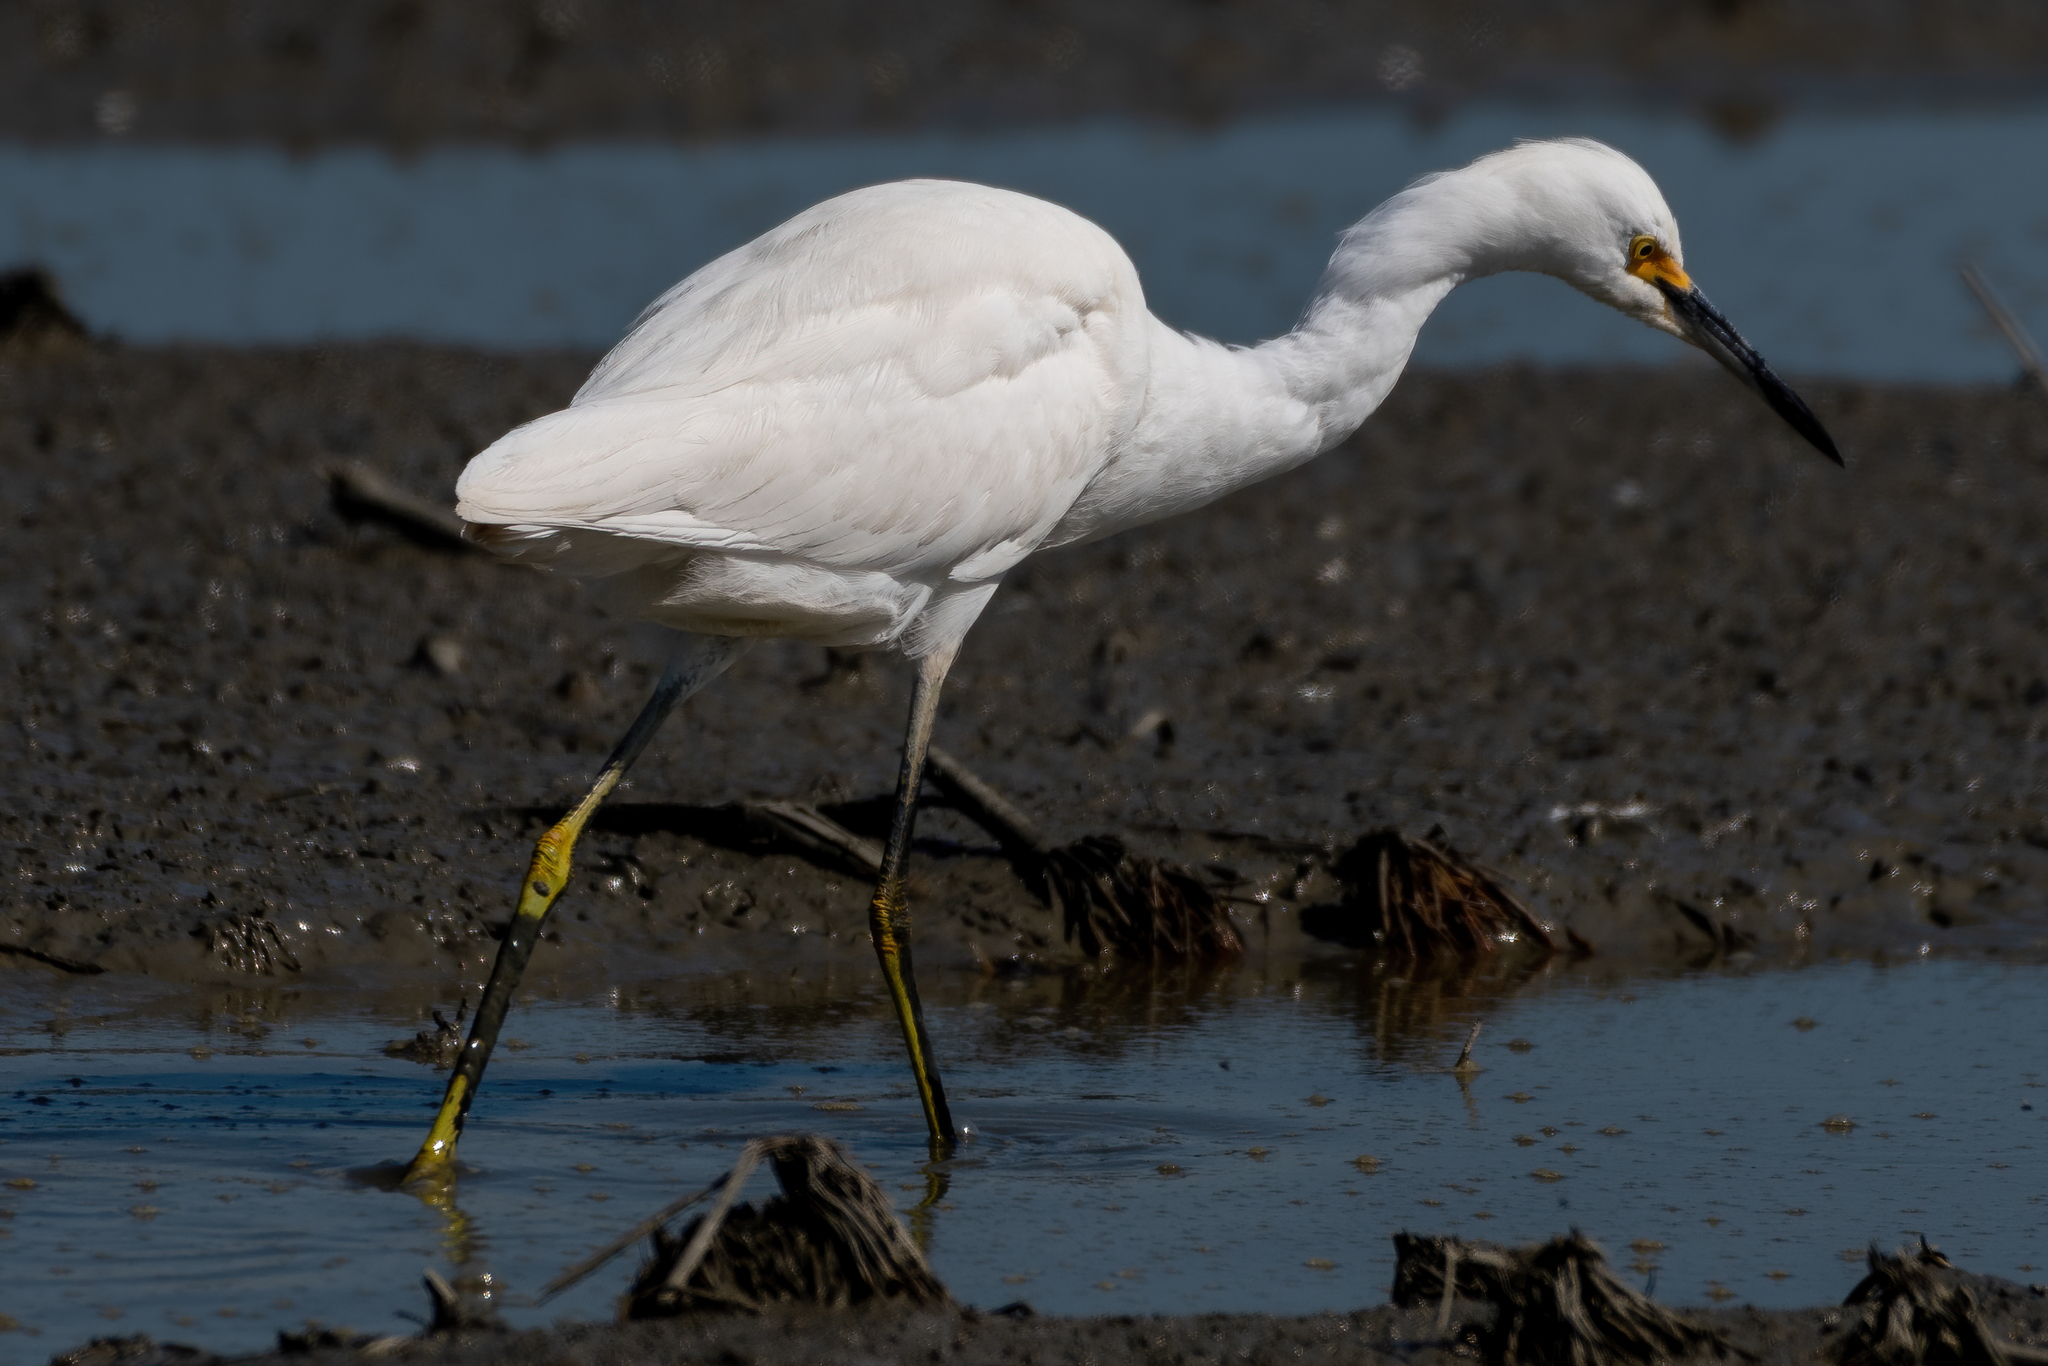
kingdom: Animalia
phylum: Chordata
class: Aves
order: Pelecaniformes
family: Ardeidae
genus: Egretta
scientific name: Egretta thula
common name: Snowy egret
